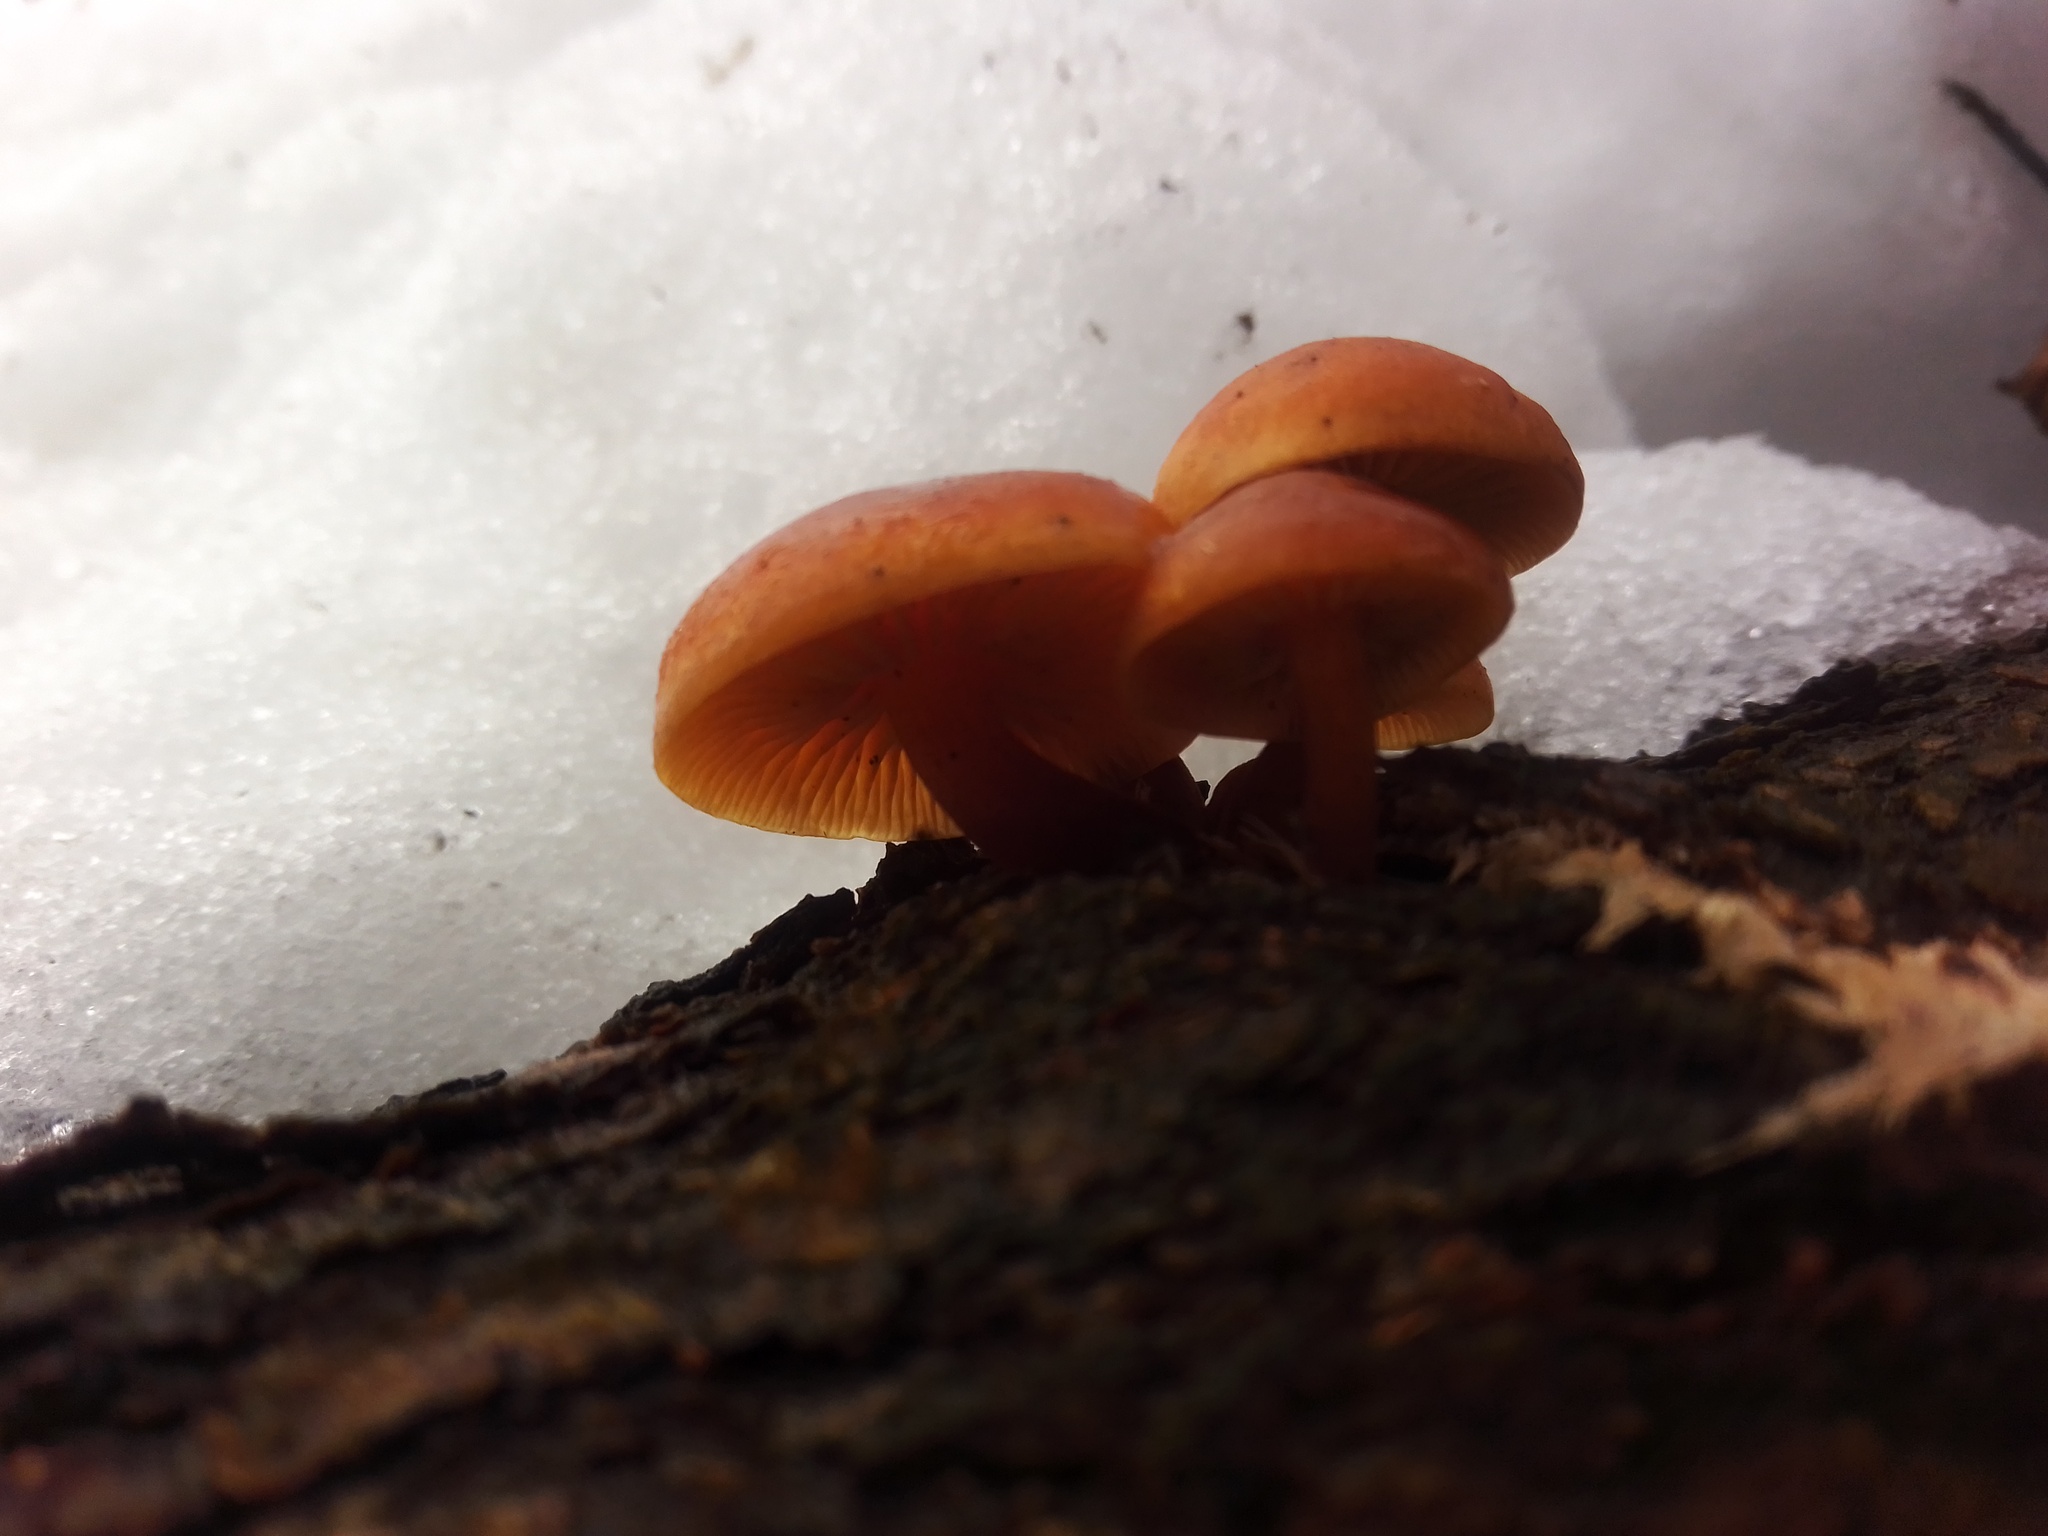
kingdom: Fungi
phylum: Basidiomycota
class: Agaricomycetes
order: Agaricales
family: Physalacriaceae
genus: Flammulina
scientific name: Flammulina
